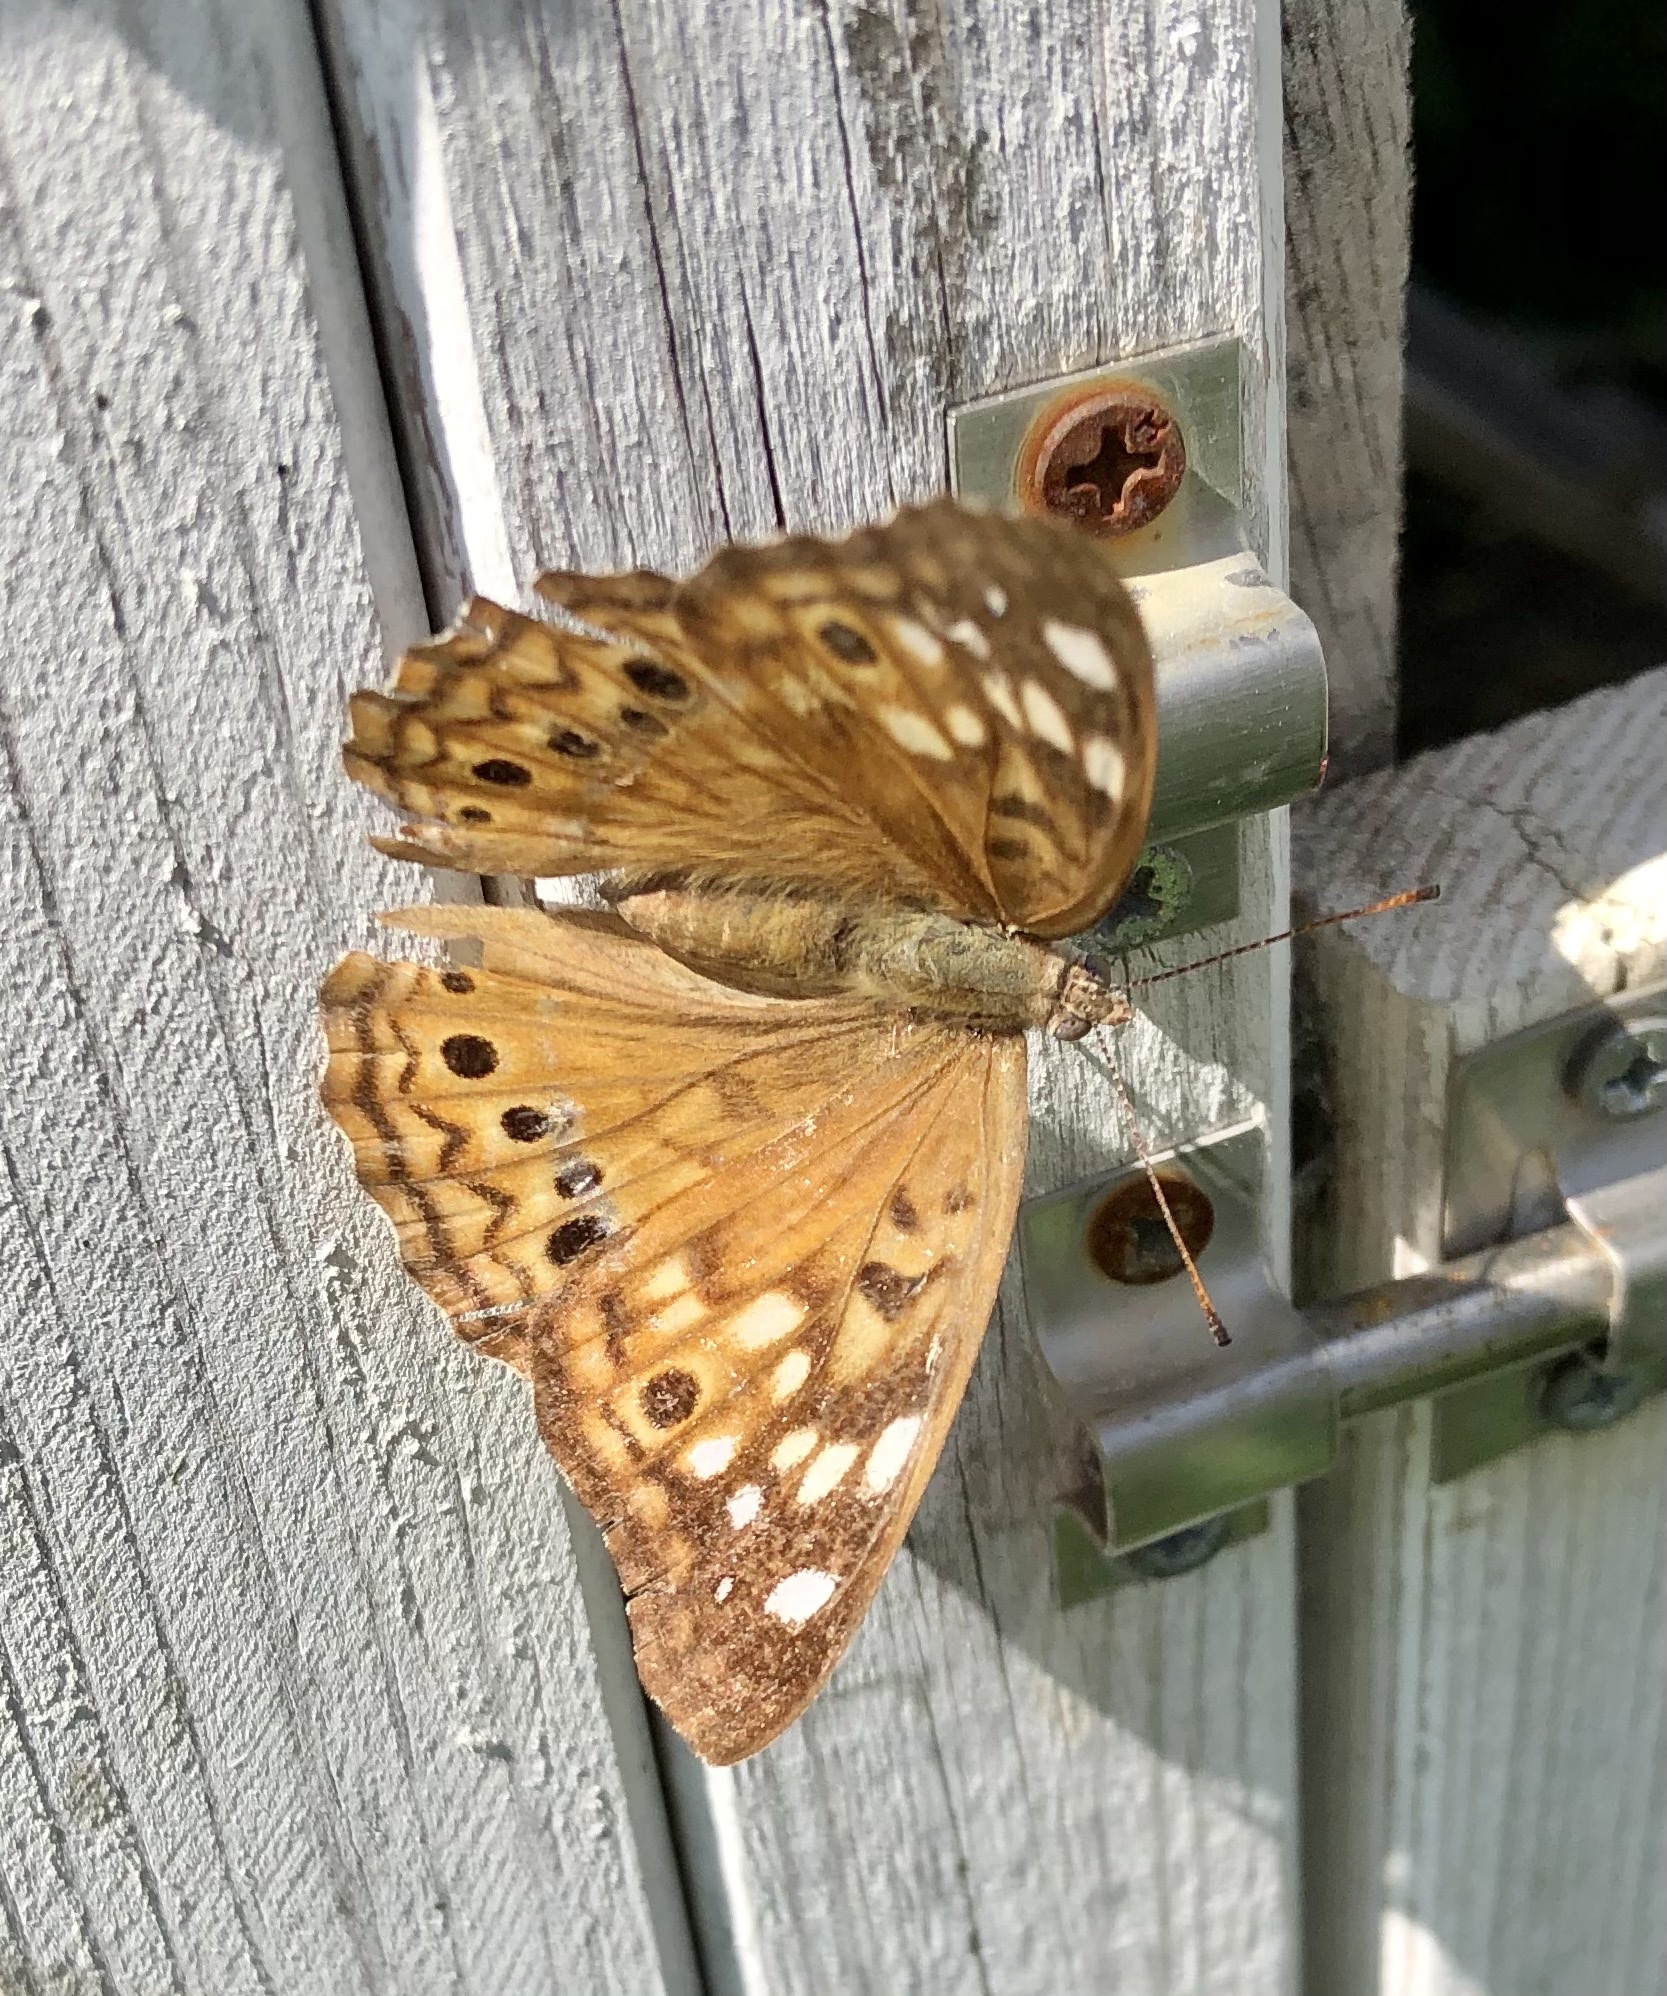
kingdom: Animalia
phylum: Arthropoda
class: Insecta
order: Lepidoptera
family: Nymphalidae
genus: Asterocampa
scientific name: Asterocampa celtis
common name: Hackberry emperor
